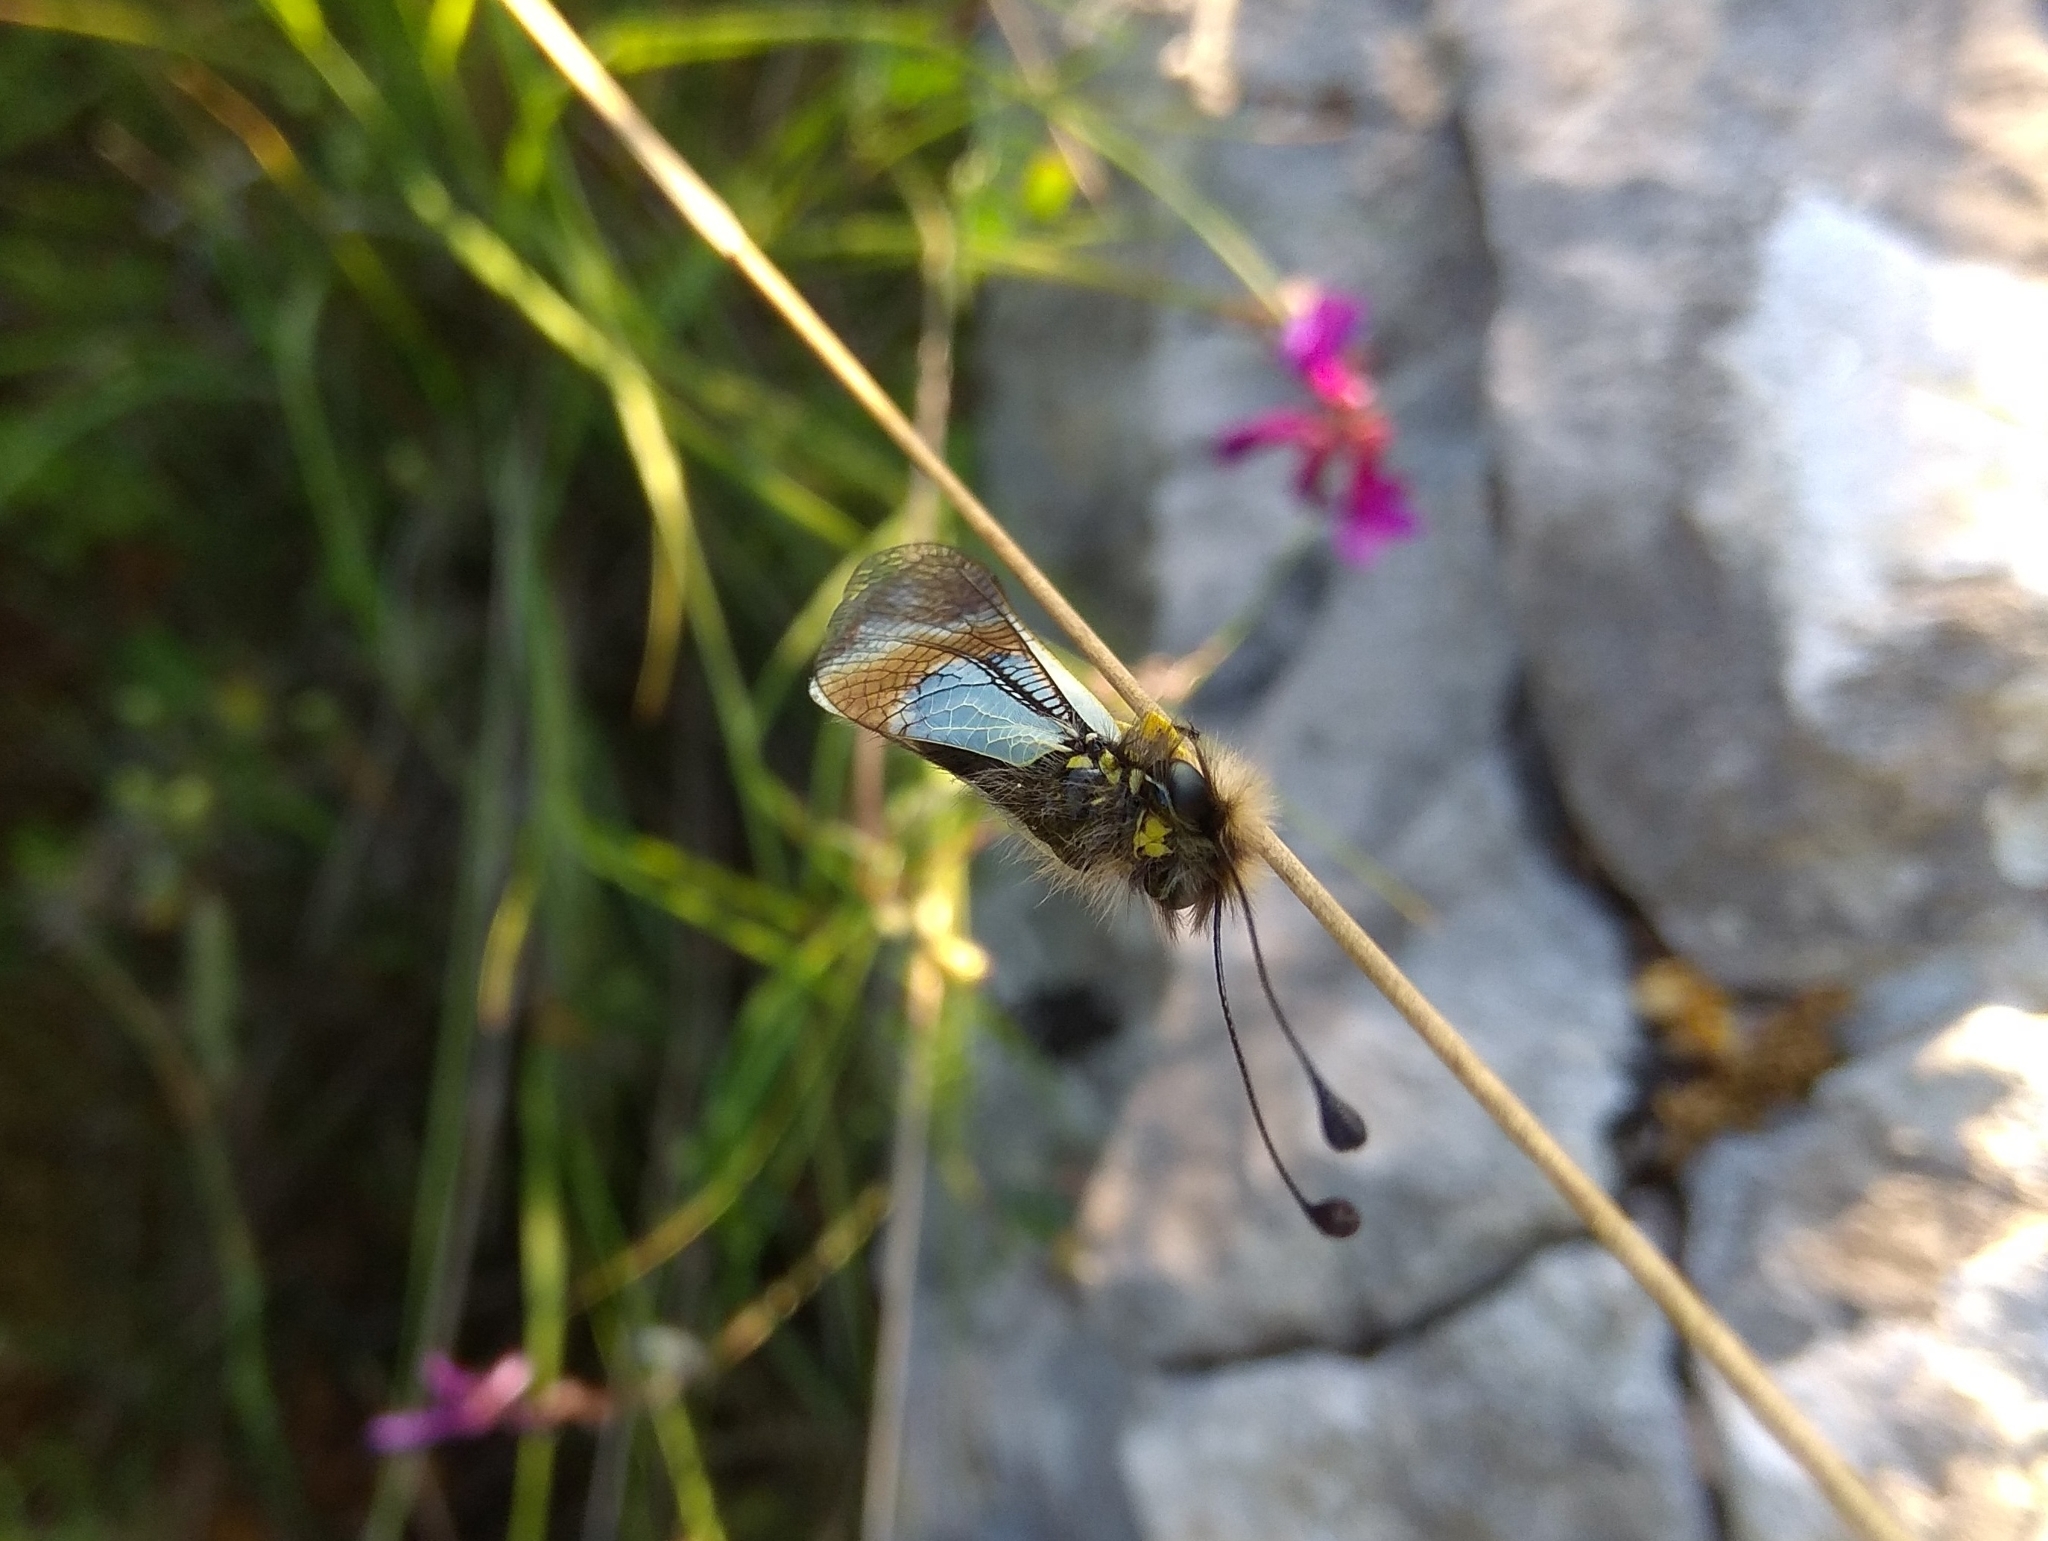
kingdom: Animalia
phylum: Arthropoda
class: Insecta
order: Neuroptera
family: Ascalaphidae
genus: Libelloides
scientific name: Libelloides lacteus
